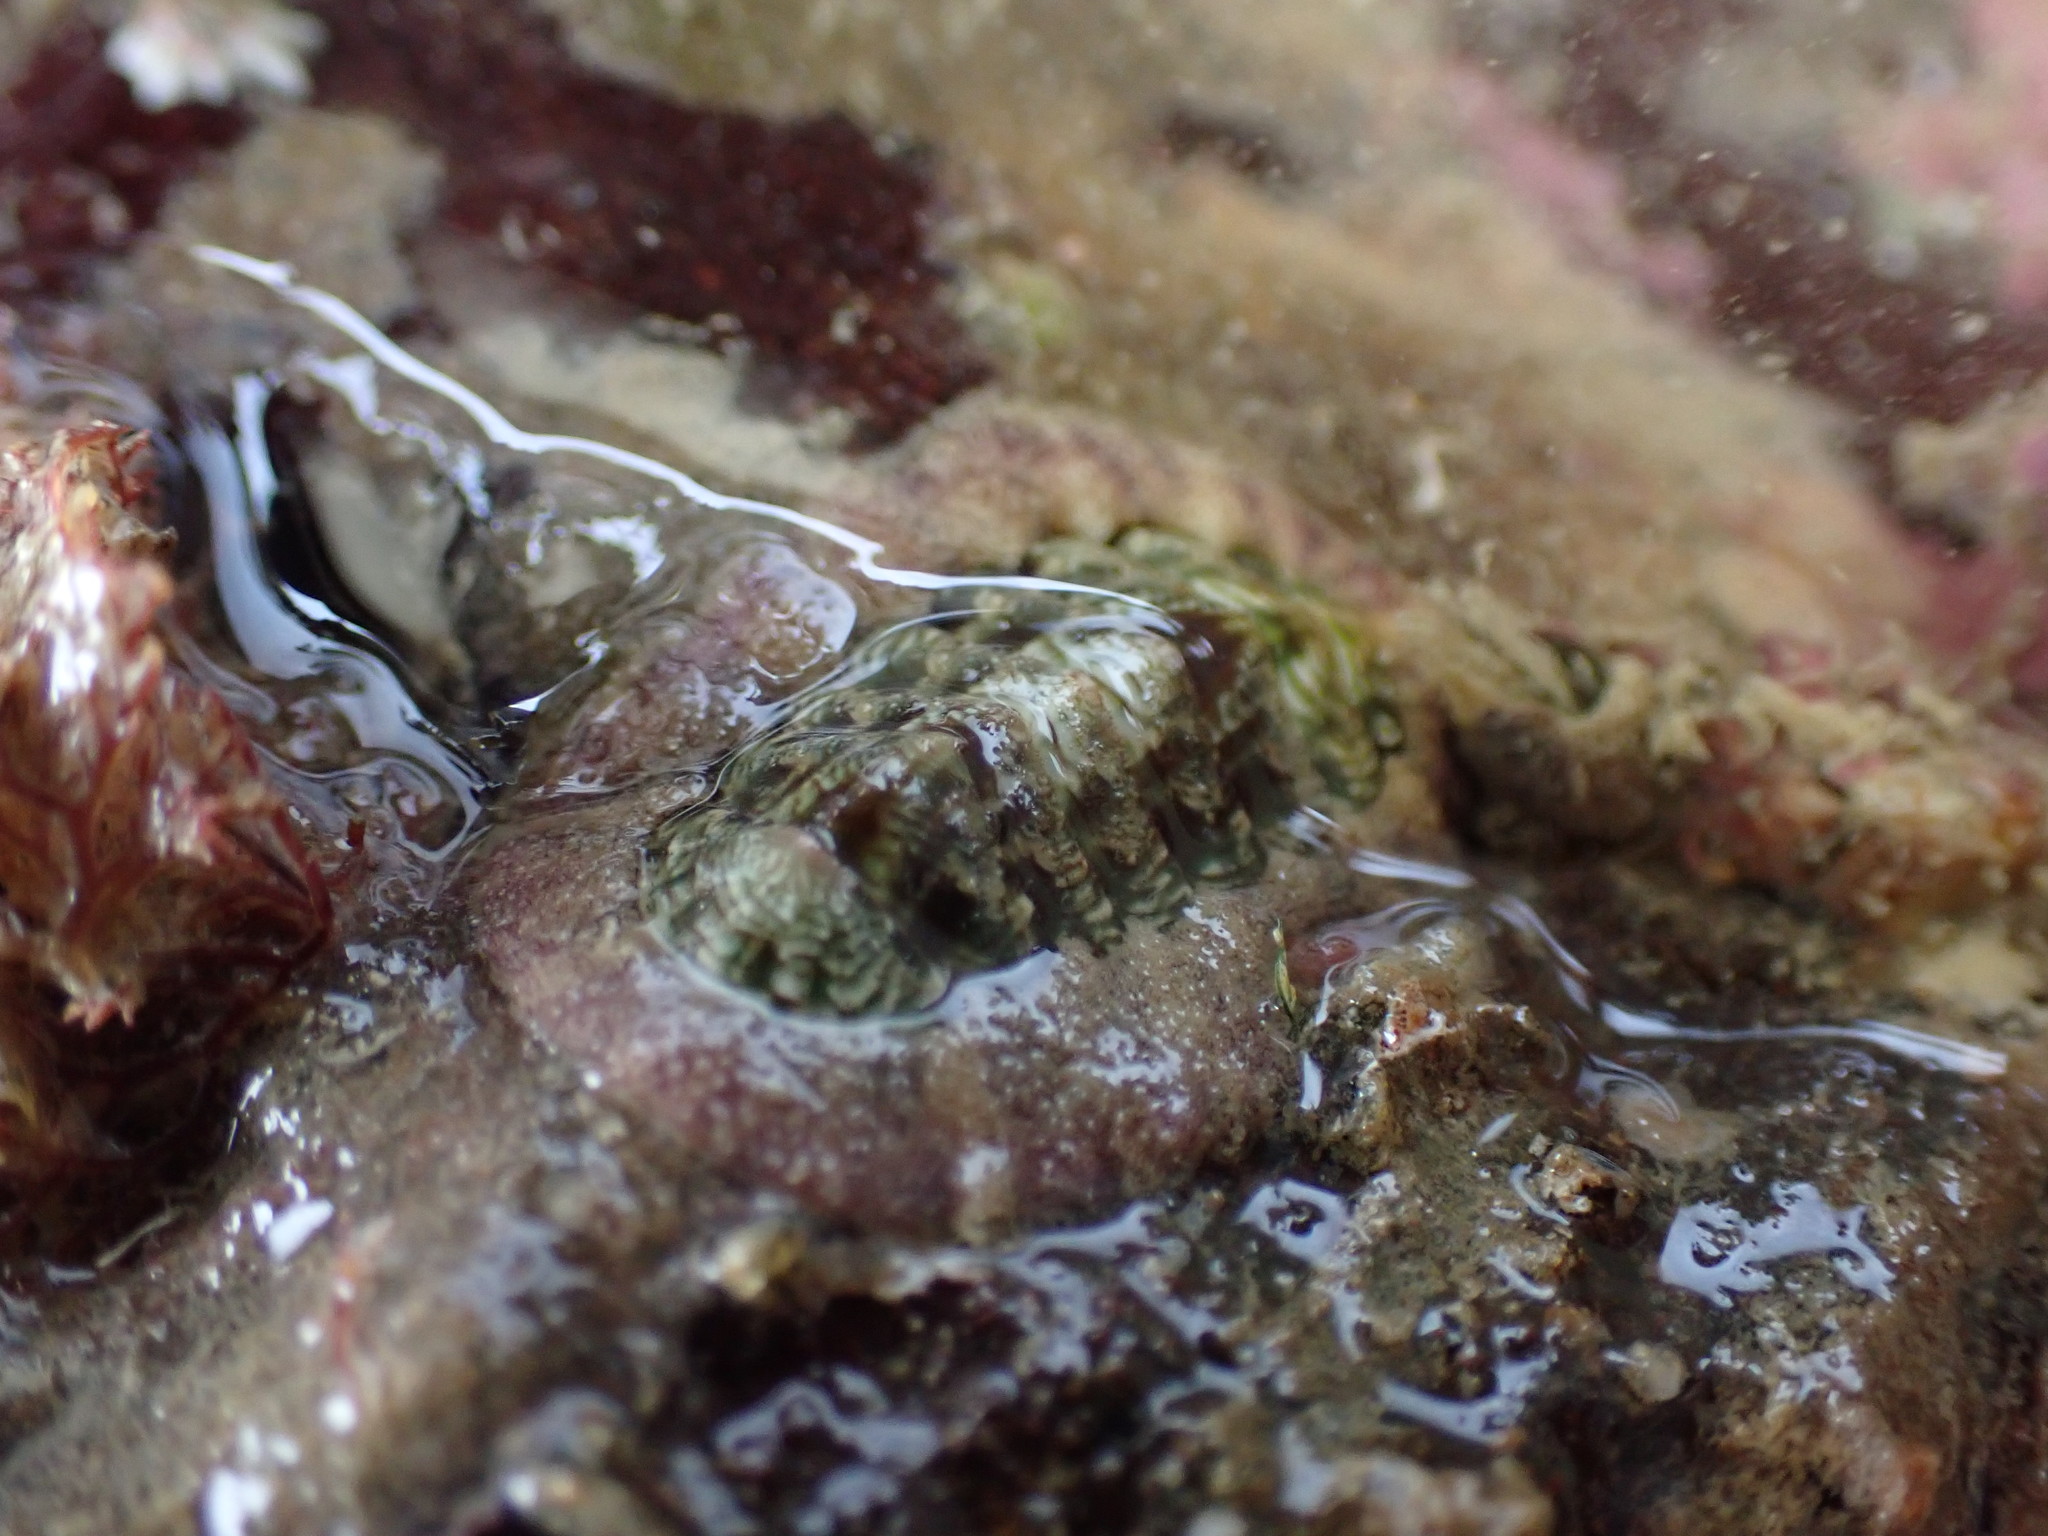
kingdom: Animalia
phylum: Mollusca
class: Polyplacophora
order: Chitonida
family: Chitonidae
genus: Onithochiton
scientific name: Onithochiton neglectus
